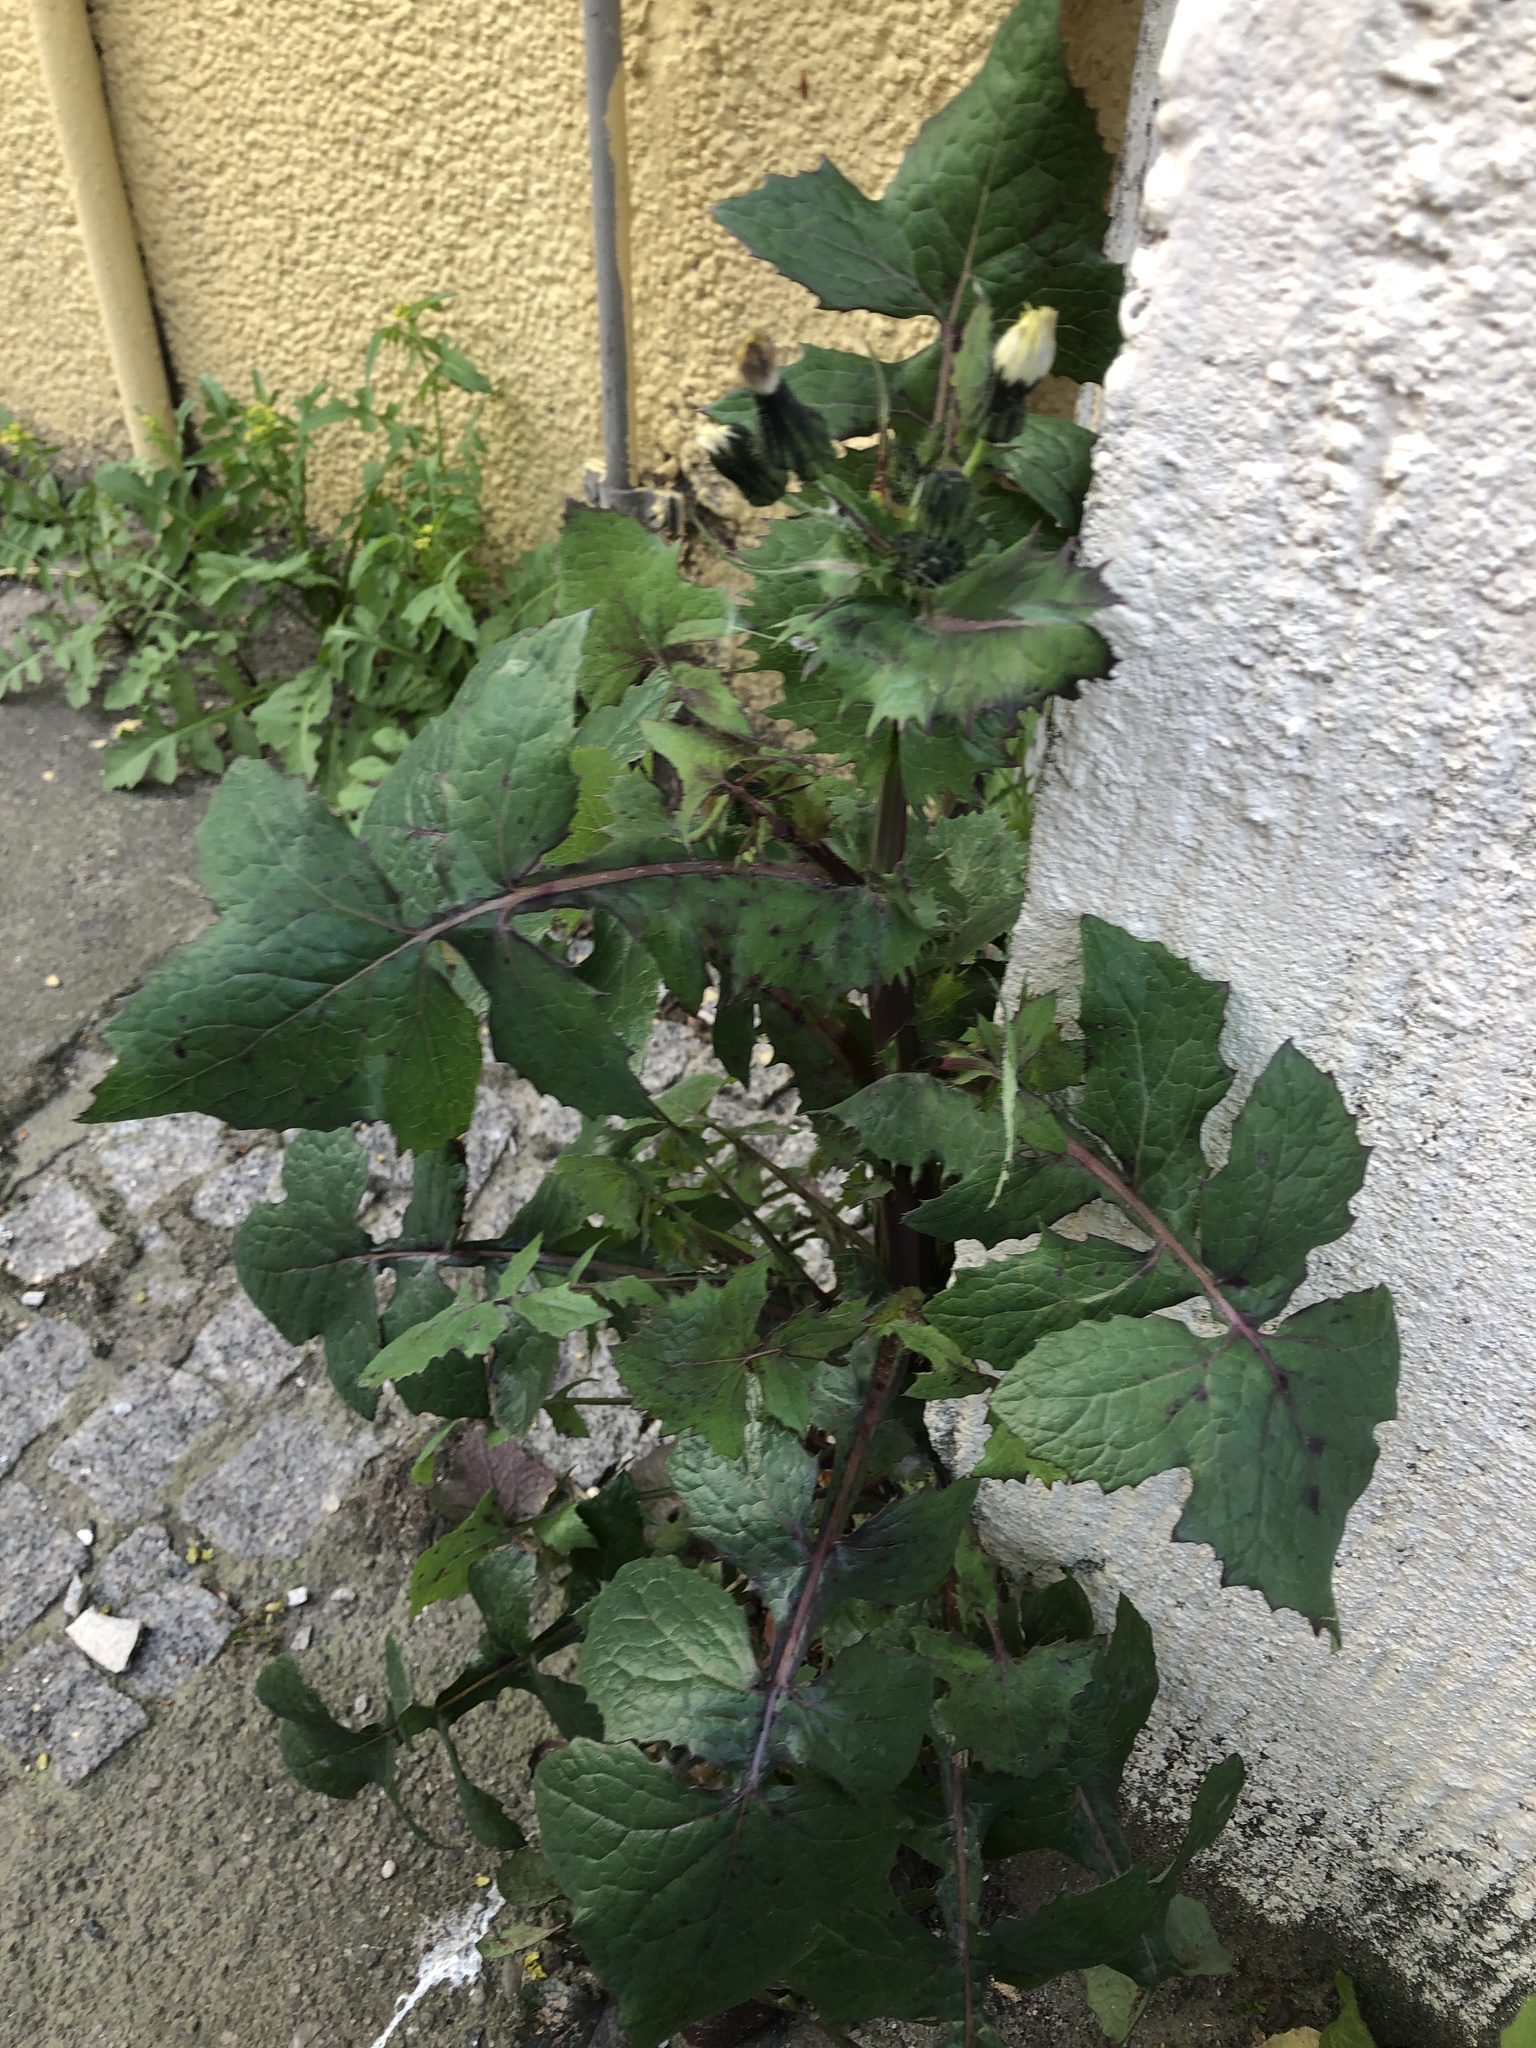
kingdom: Plantae
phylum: Tracheophyta
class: Magnoliopsida
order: Asterales
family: Asteraceae
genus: Sonchus
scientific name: Sonchus oleraceus
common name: Common sowthistle
